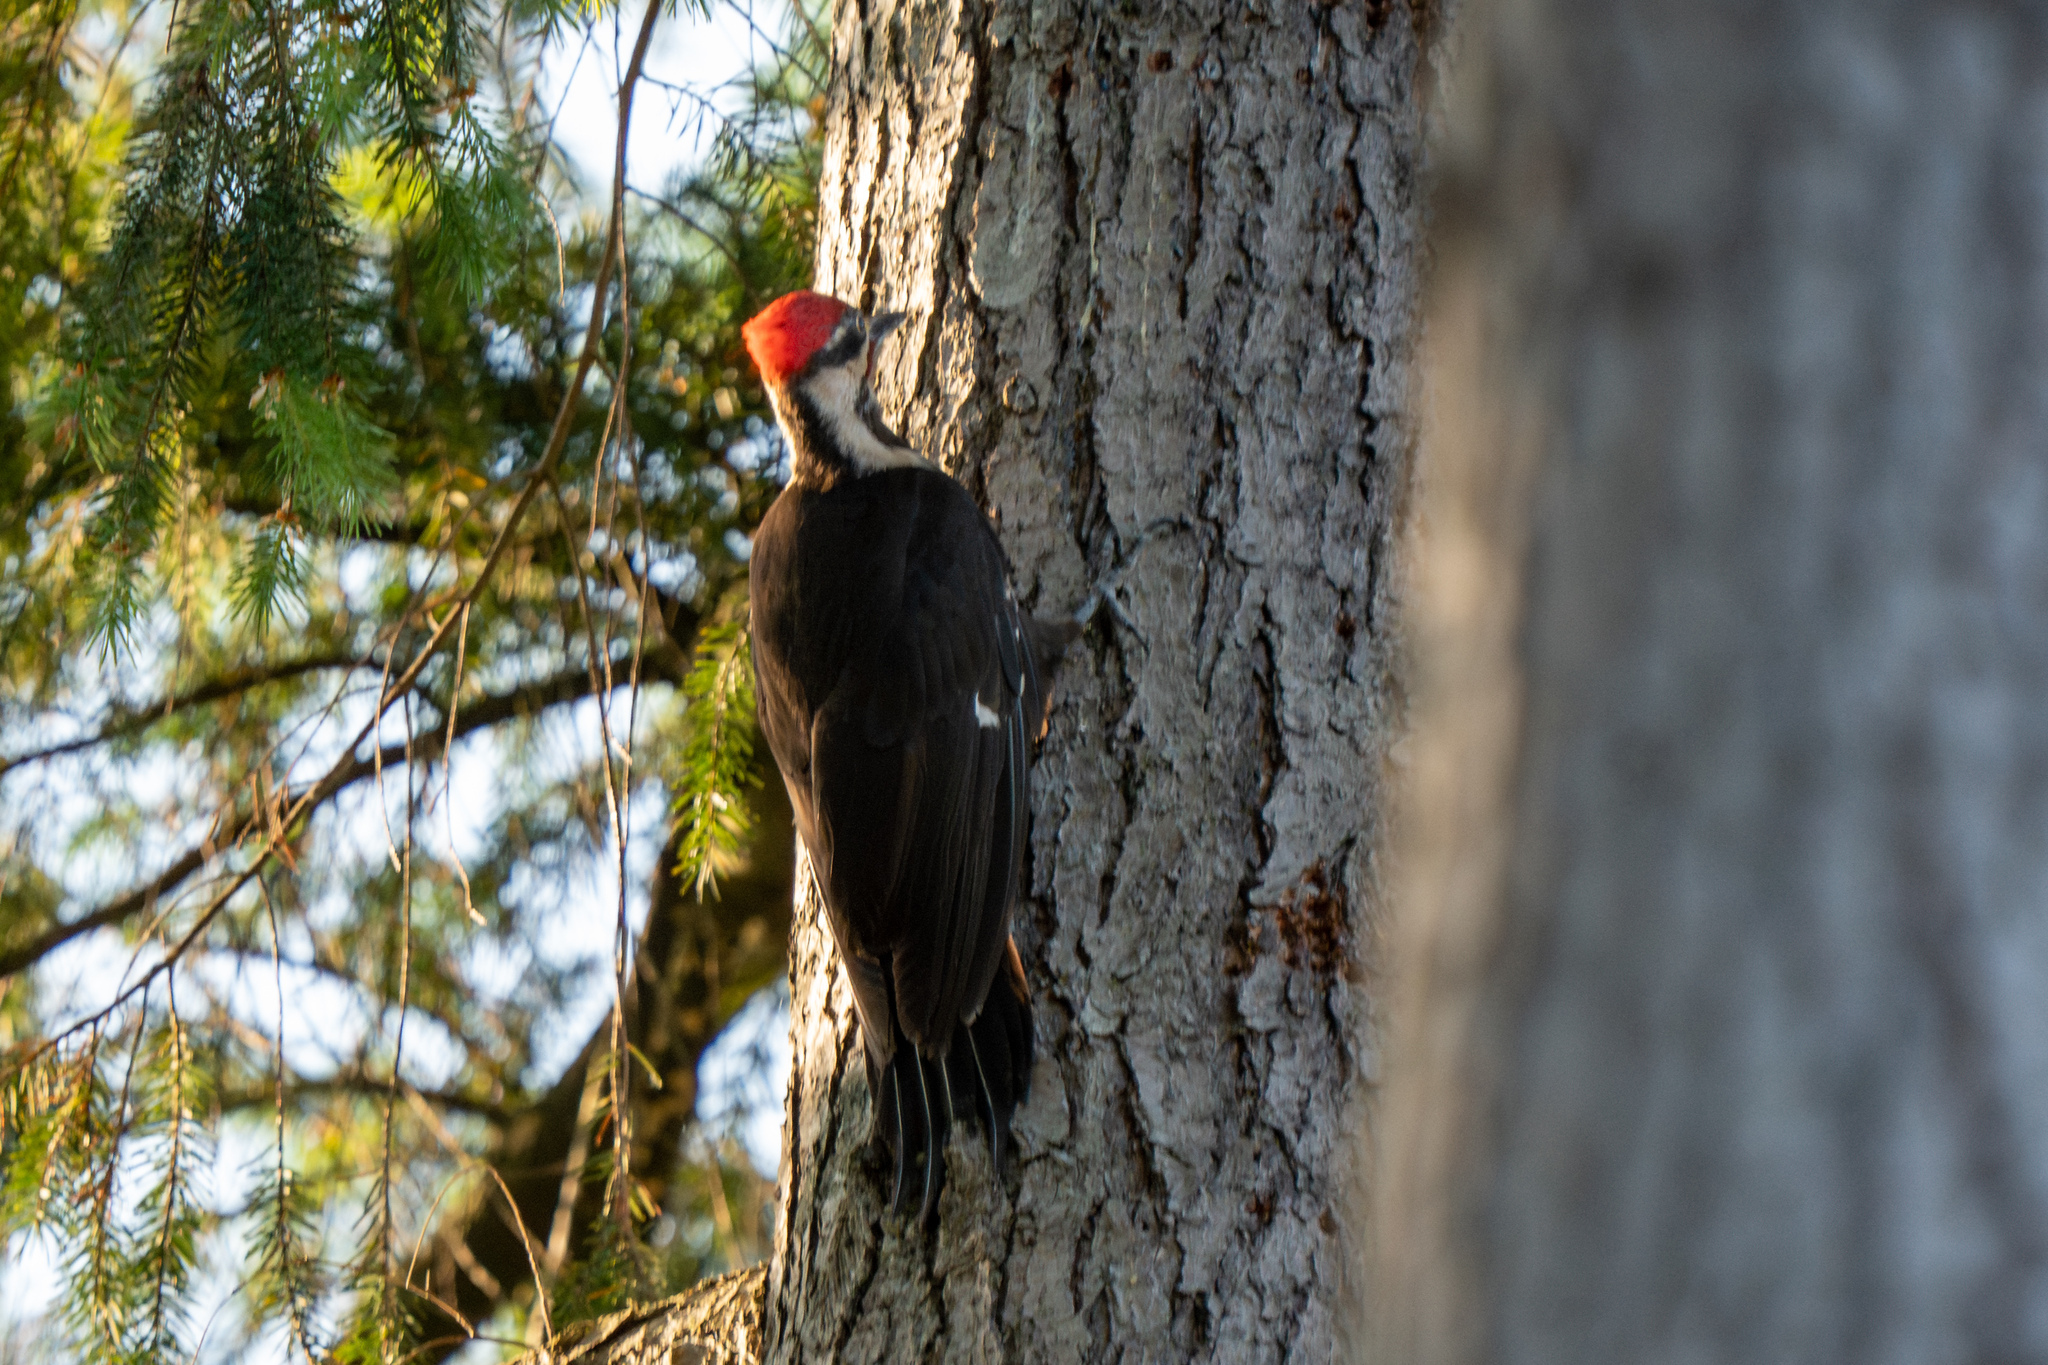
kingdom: Animalia
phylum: Chordata
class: Aves
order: Piciformes
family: Picidae
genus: Dryocopus
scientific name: Dryocopus pileatus
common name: Pileated woodpecker
